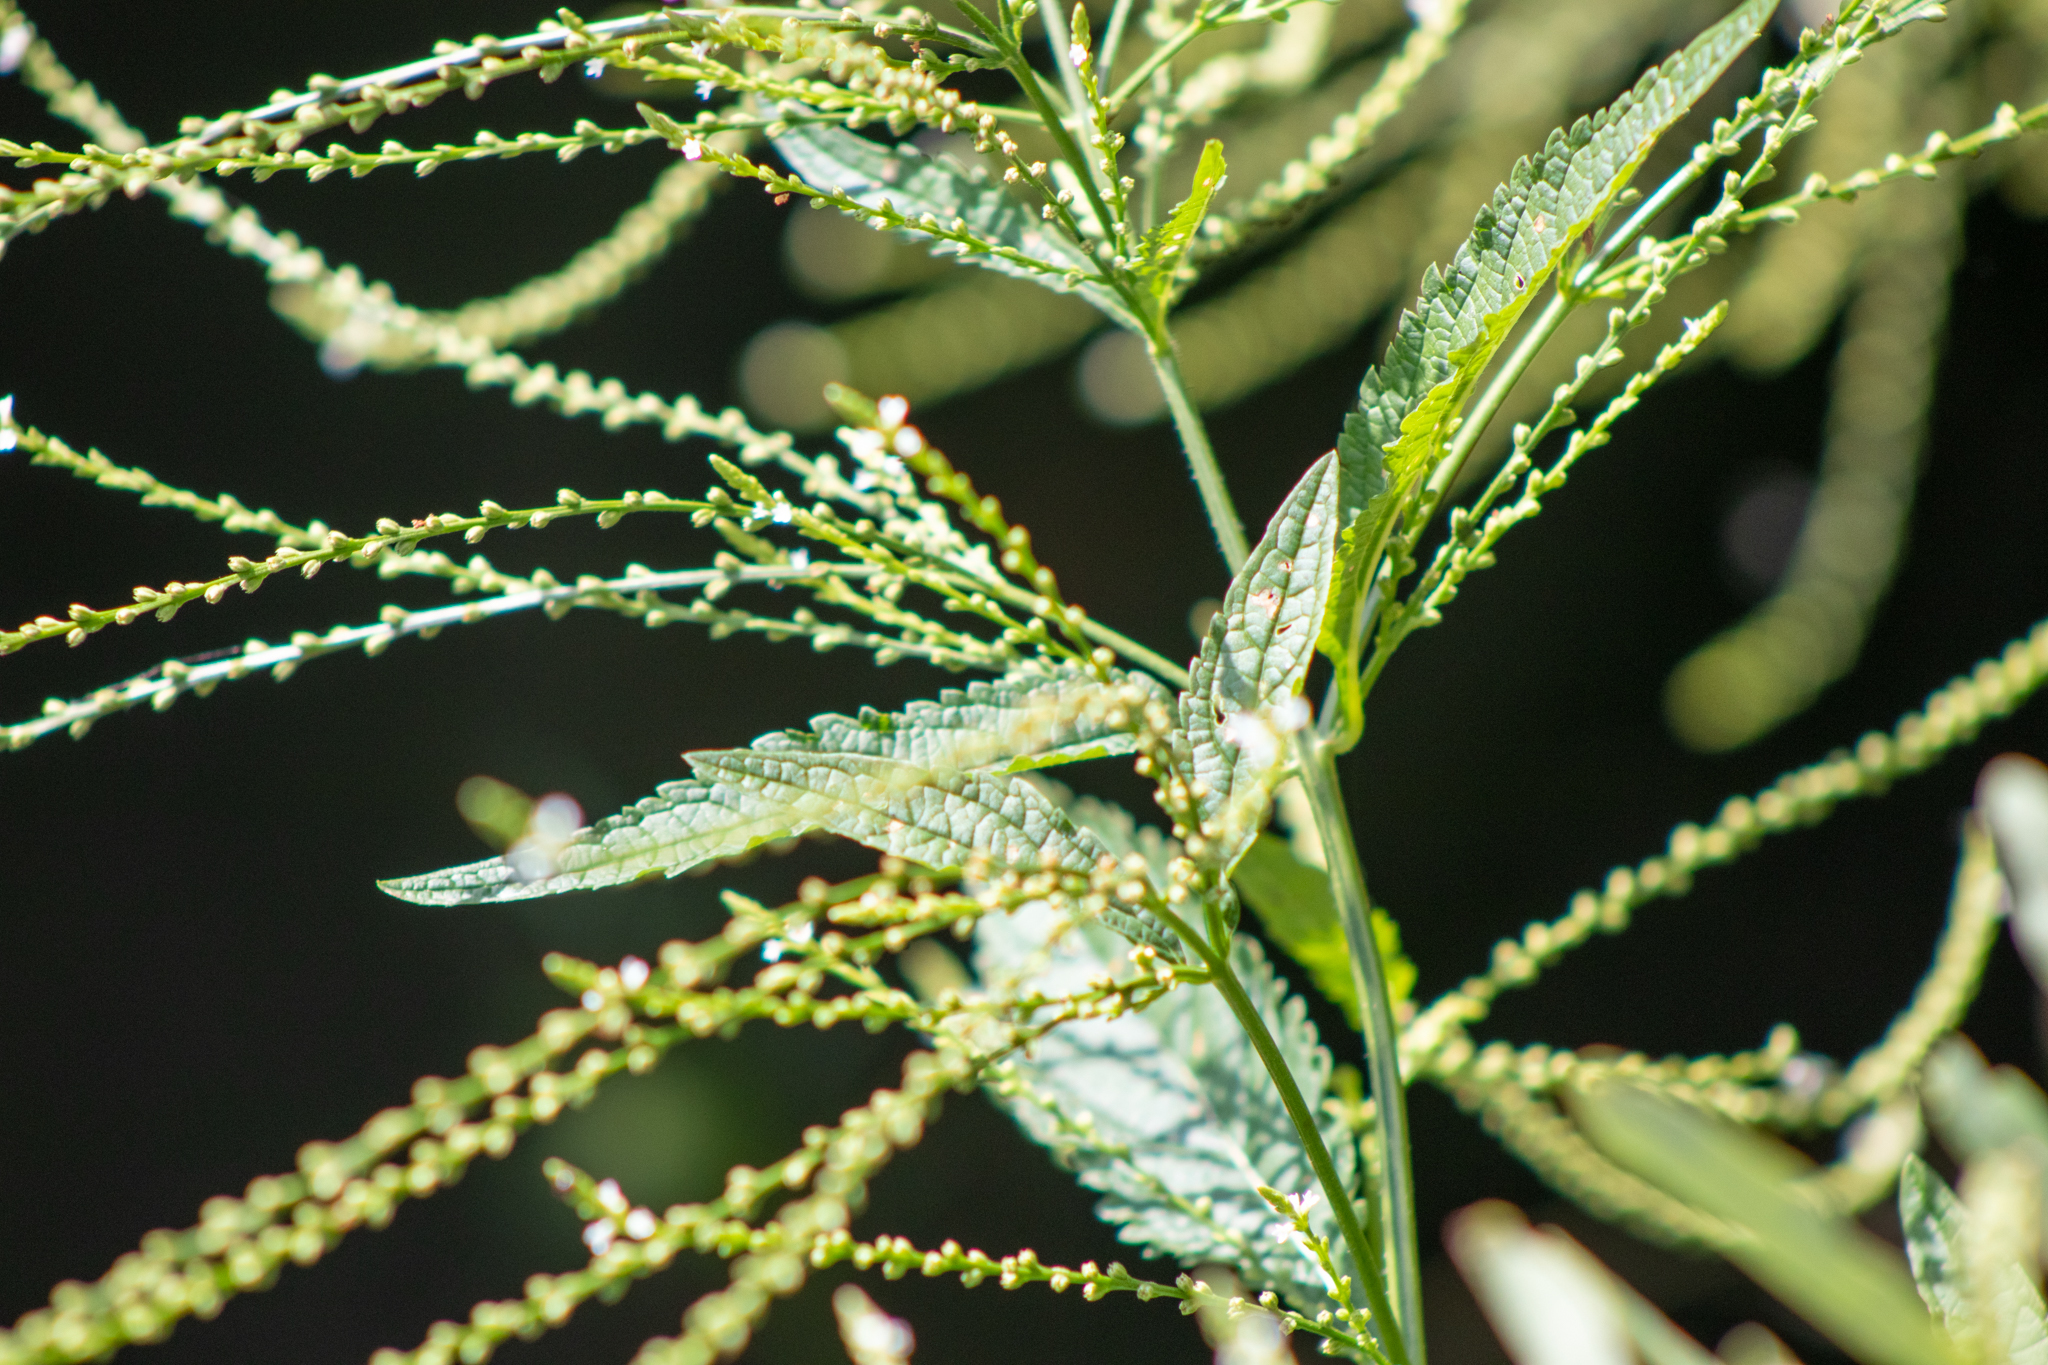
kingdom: Plantae
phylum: Tracheophyta
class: Magnoliopsida
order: Lamiales
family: Verbenaceae
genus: Verbena
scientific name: Verbena urticifolia
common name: Nettle-leaved vervain
